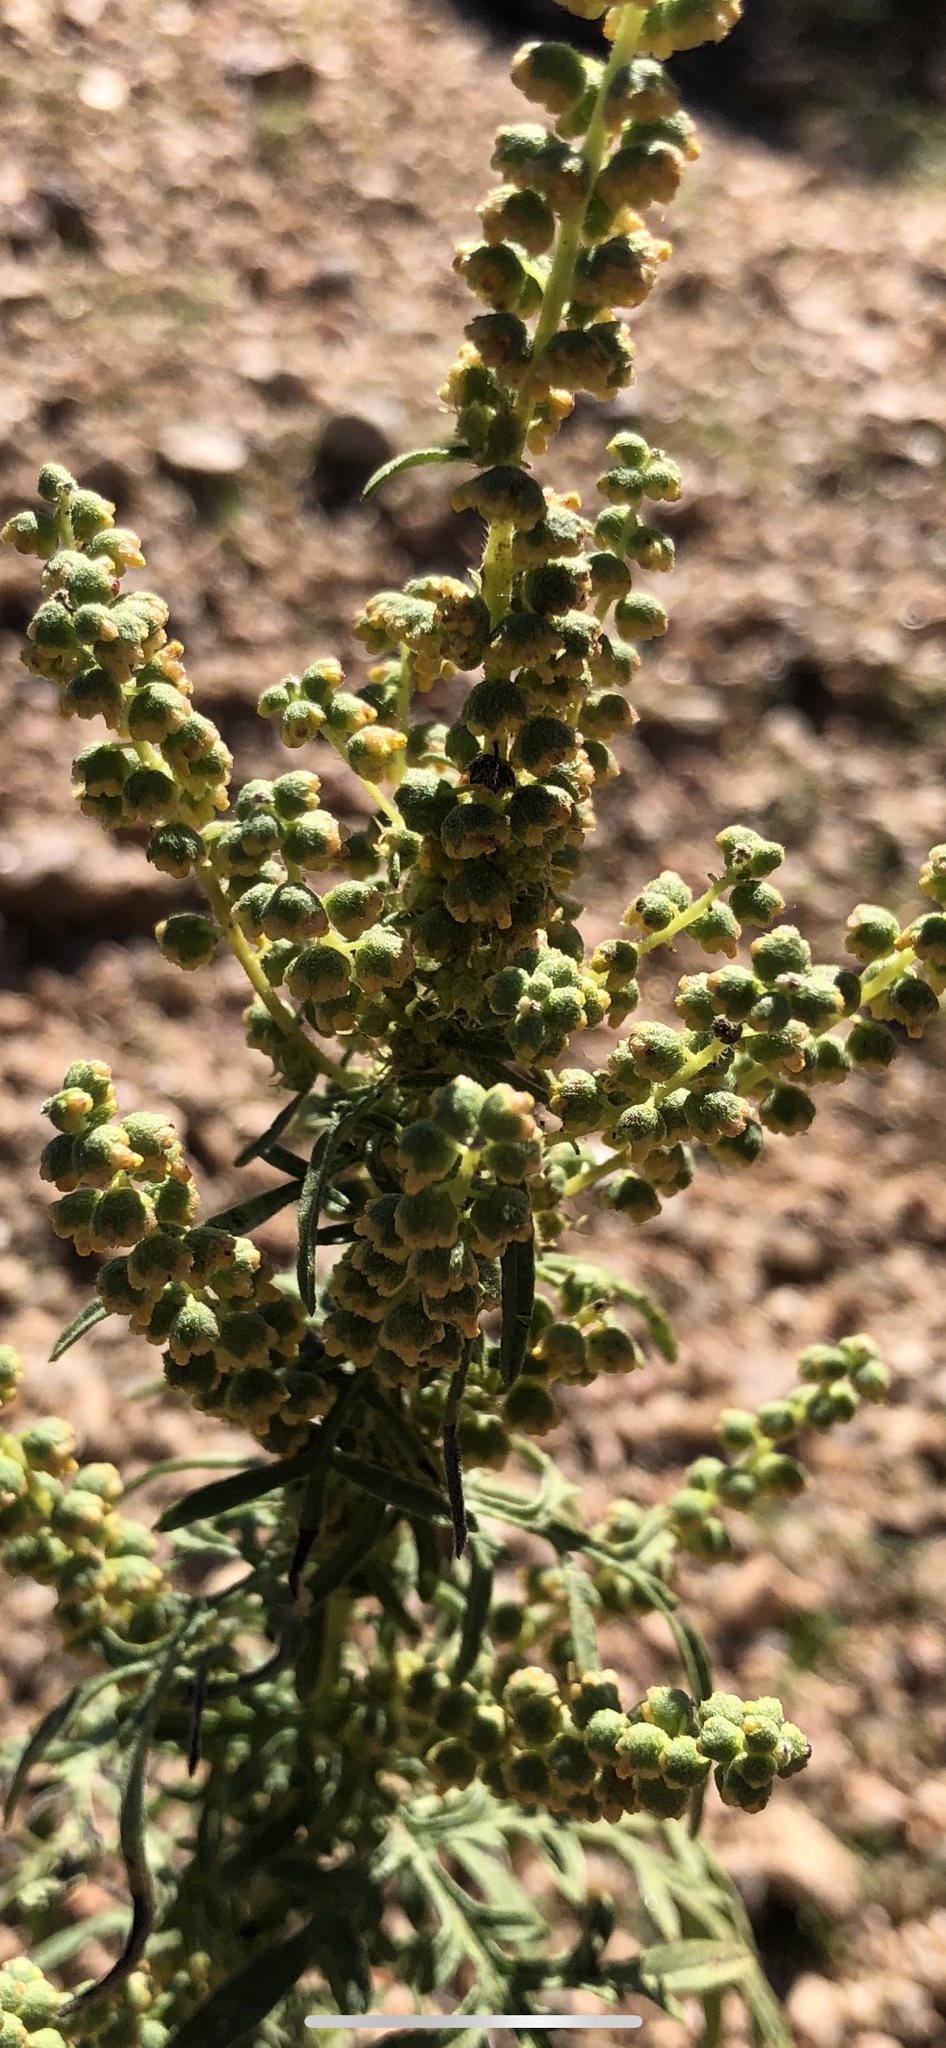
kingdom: Plantae
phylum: Tracheophyta
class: Magnoliopsida
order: Asterales
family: Asteraceae
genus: Ambrosia
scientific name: Ambrosia confertiflora
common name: Bur ragweed
